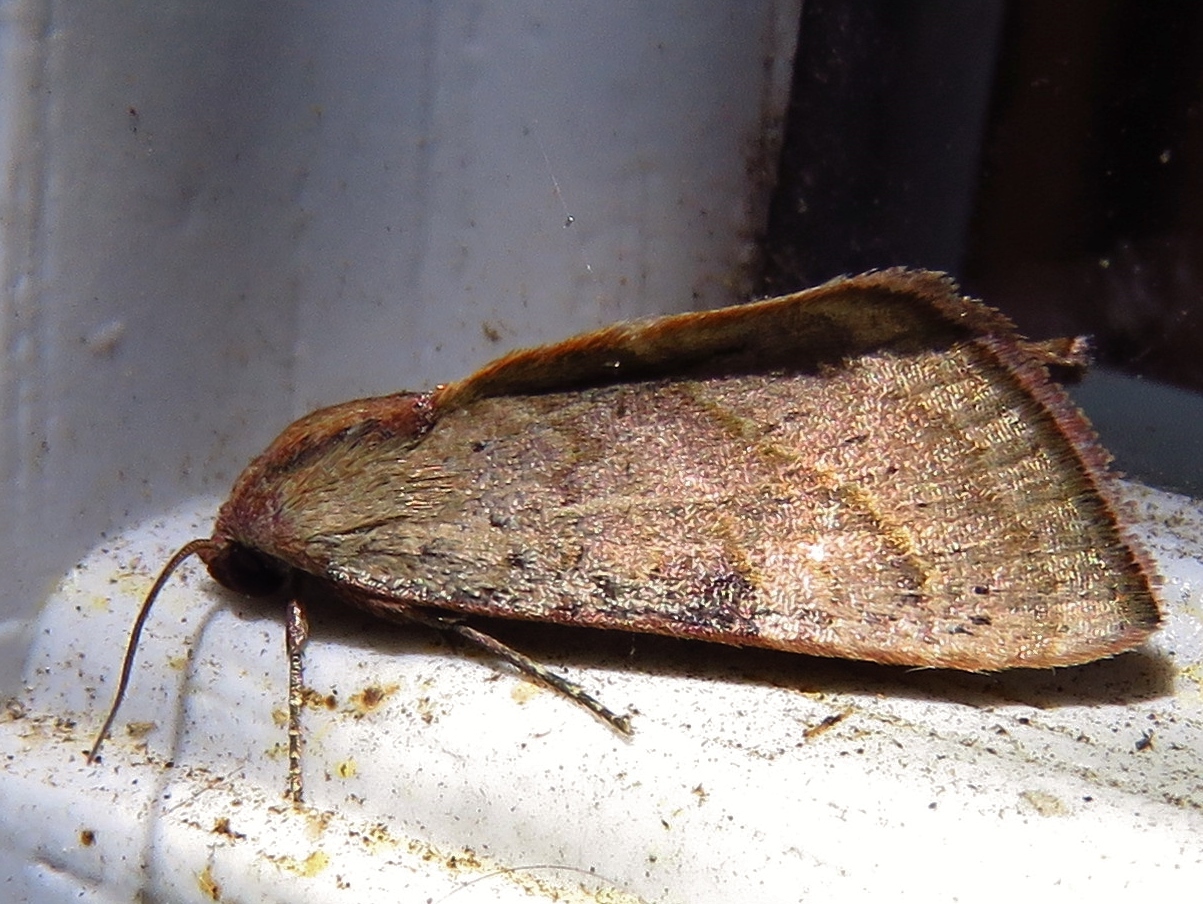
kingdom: Animalia
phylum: Arthropoda
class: Insecta
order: Lepidoptera
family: Noctuidae
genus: Galgula
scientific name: Galgula partita
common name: Wedgeling
